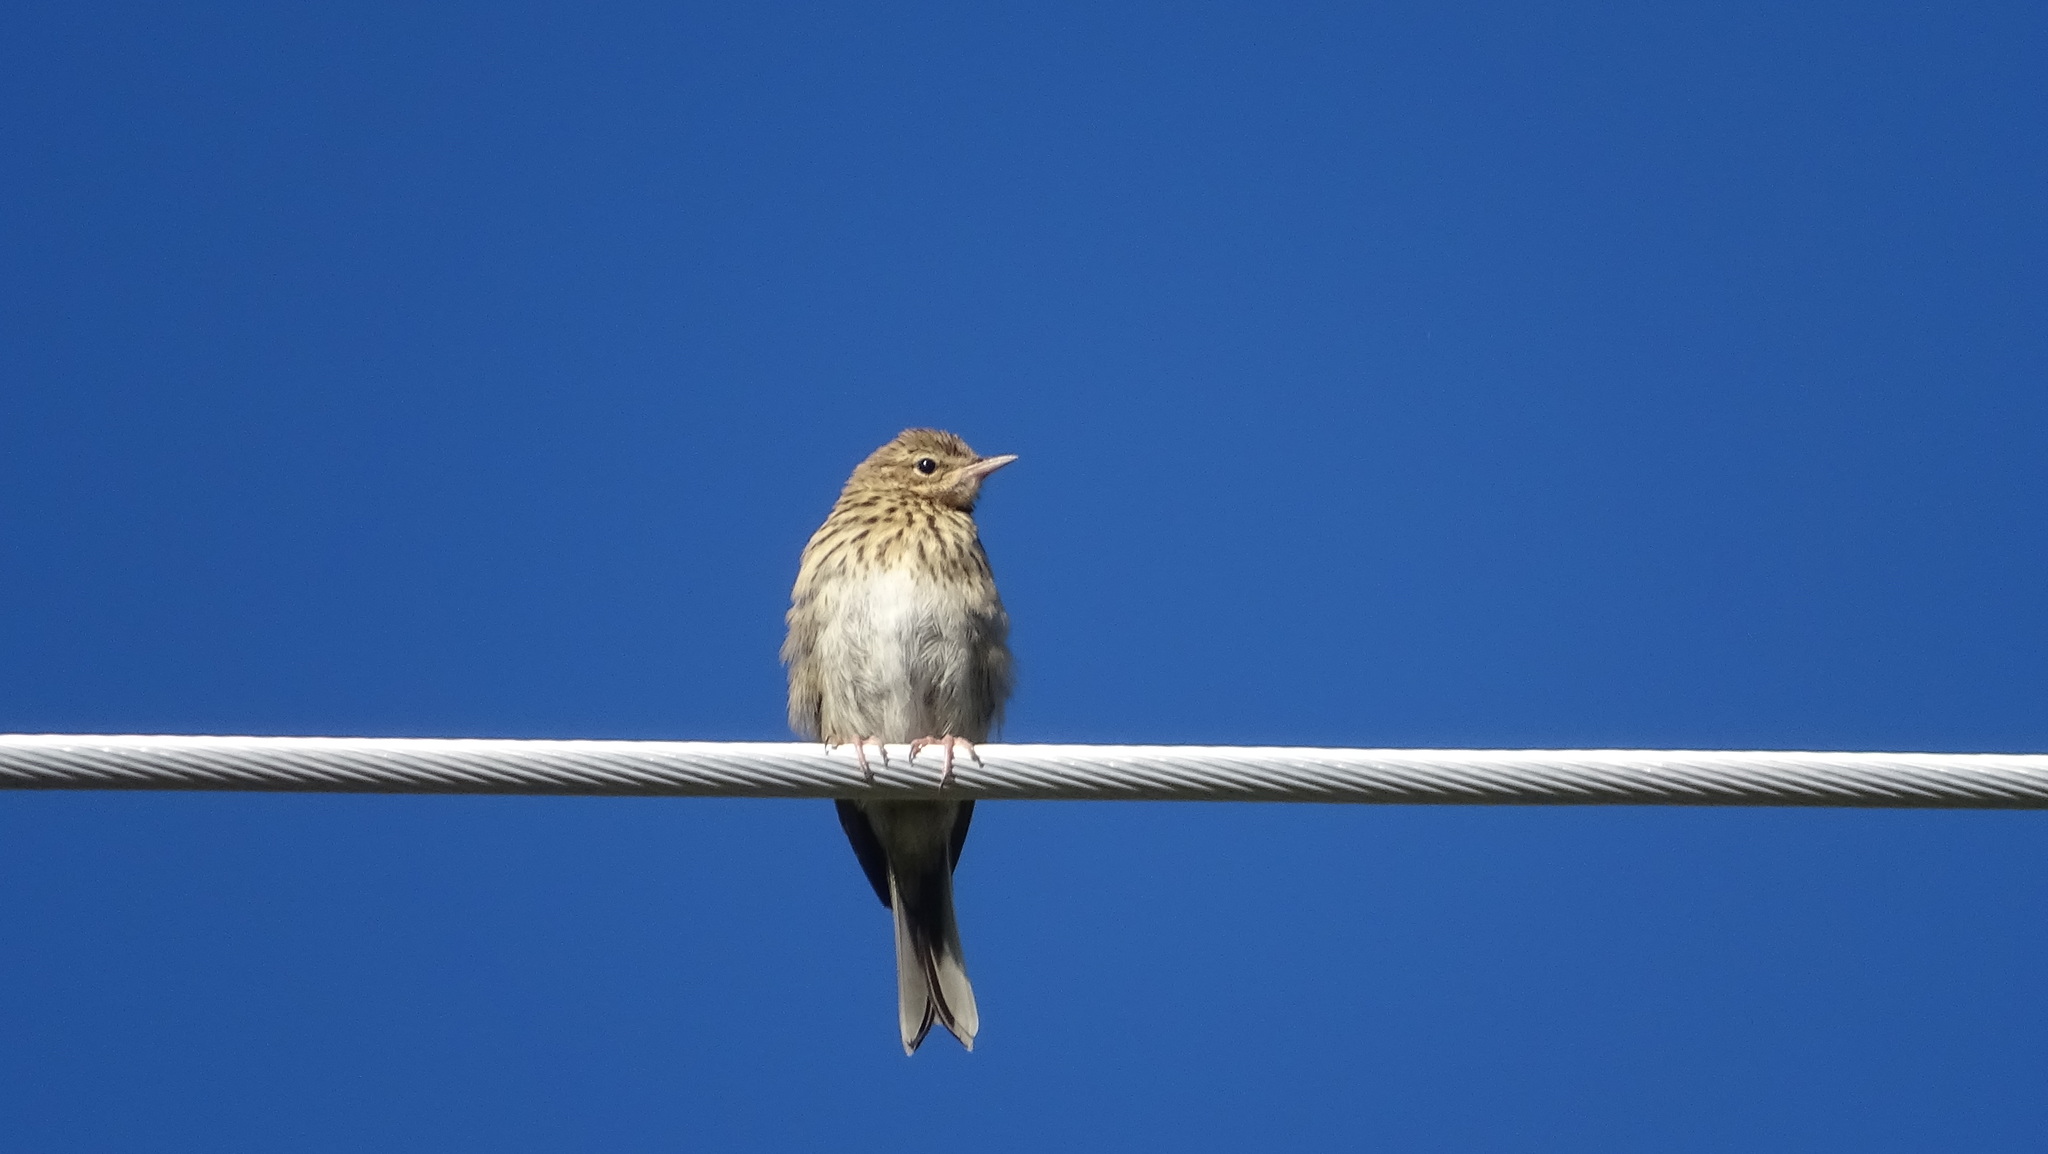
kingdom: Animalia
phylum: Chordata
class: Aves
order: Passeriformes
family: Motacillidae
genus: Anthus
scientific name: Anthus trivialis
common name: Tree pipit
